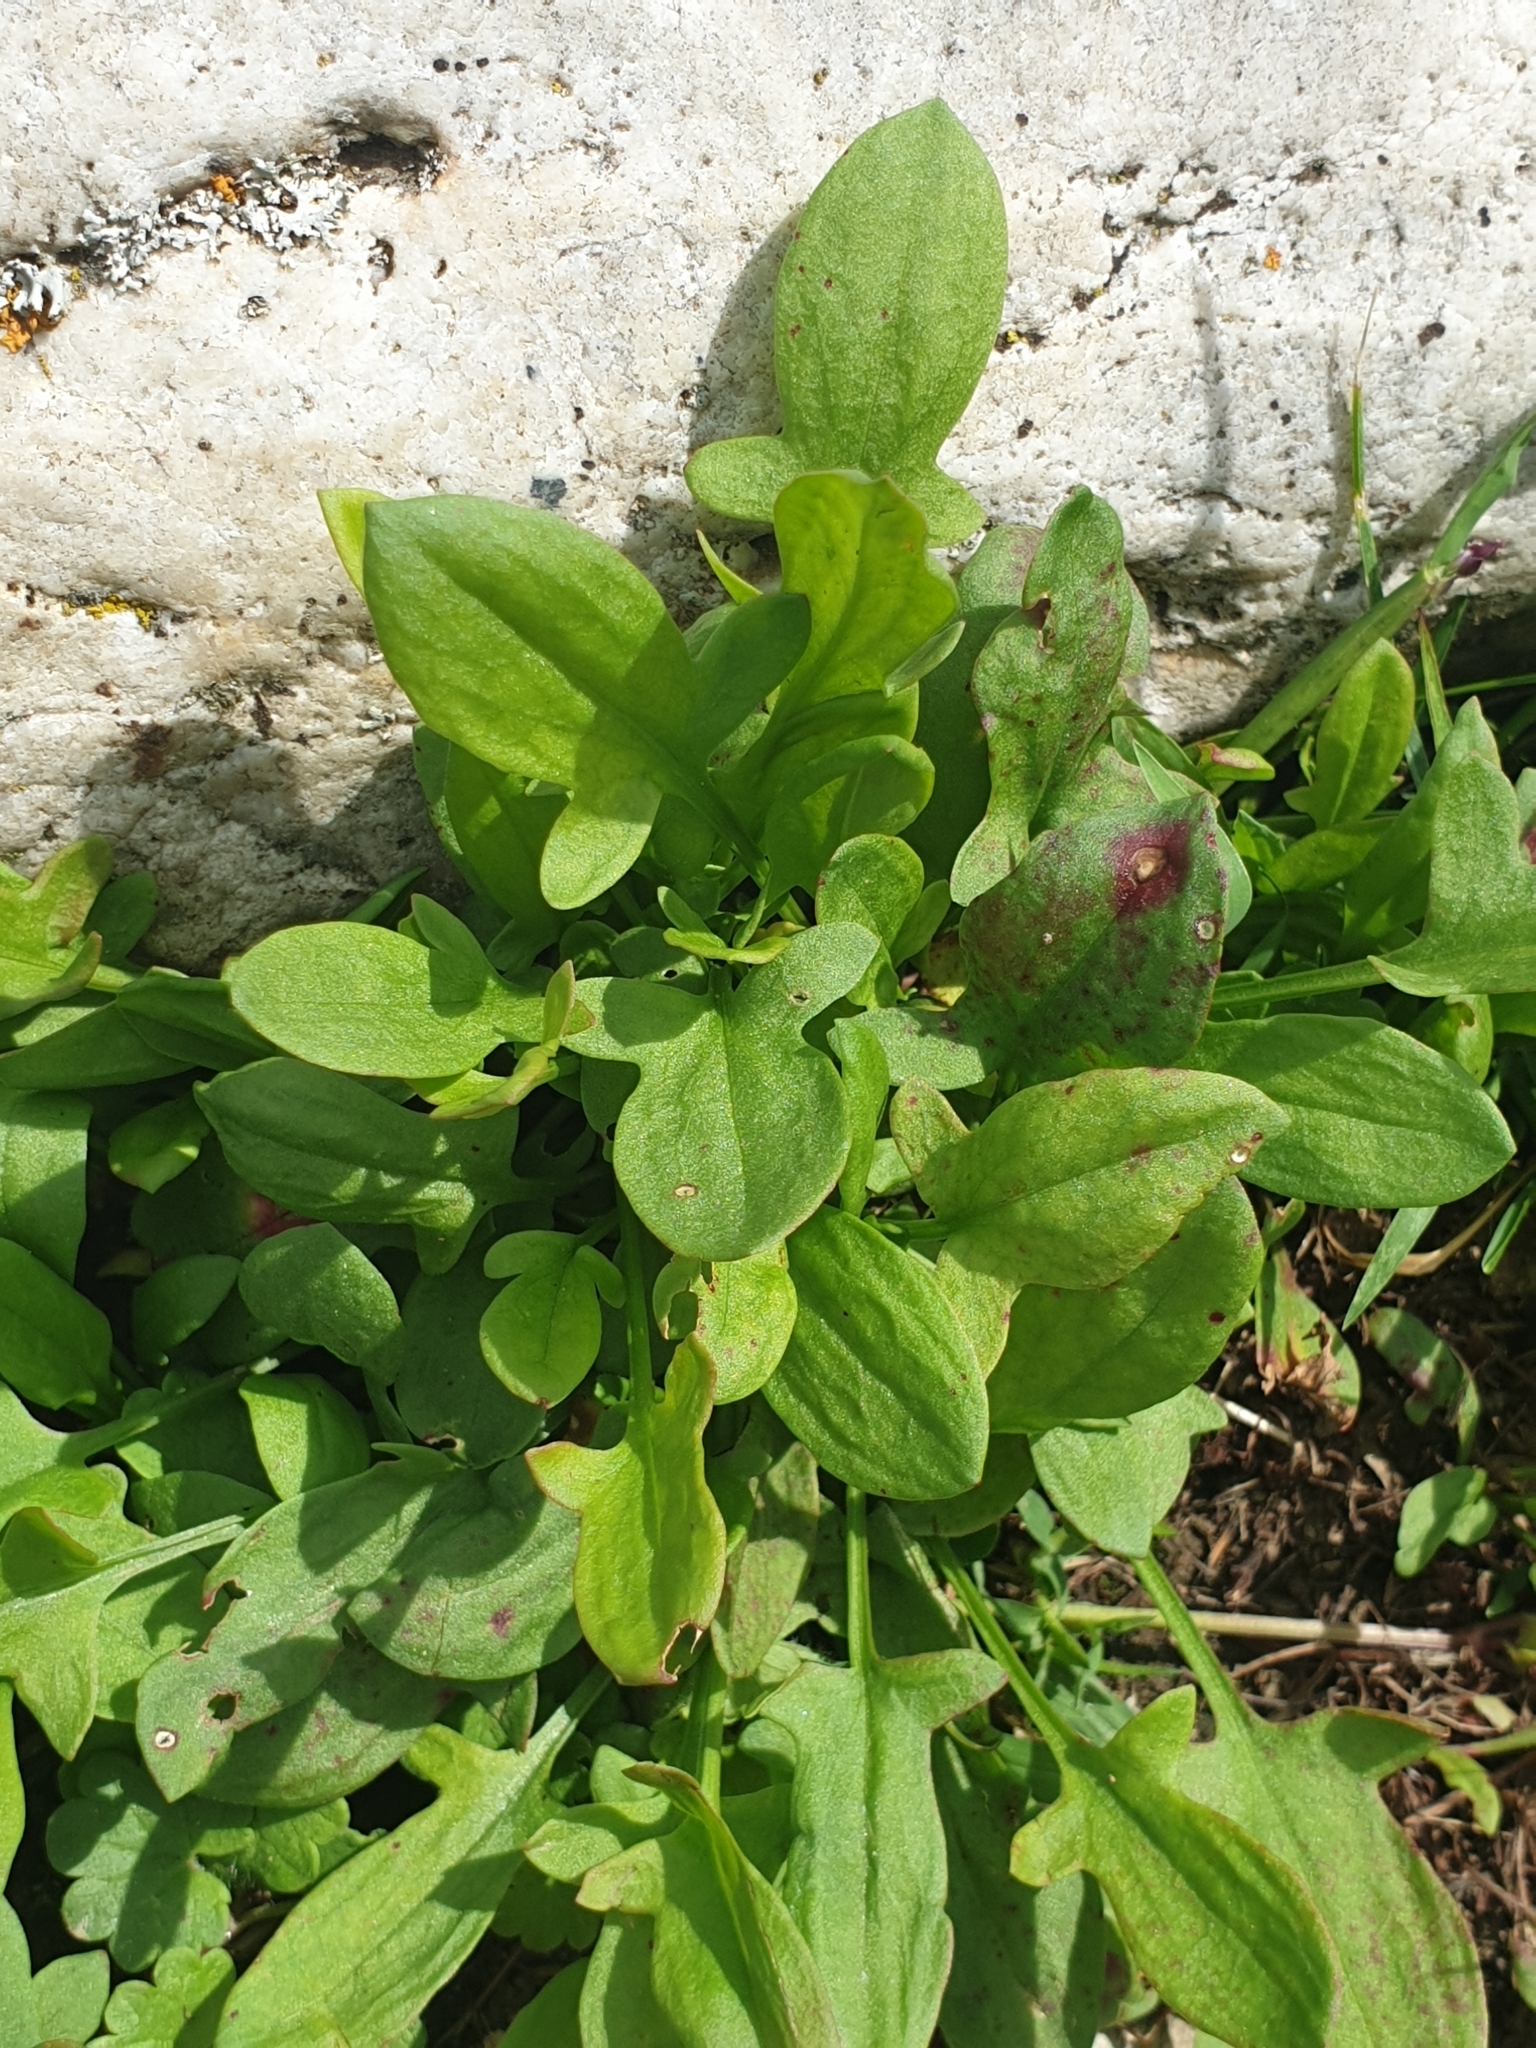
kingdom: Plantae
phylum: Tracheophyta
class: Magnoliopsida
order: Caryophyllales
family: Polygonaceae
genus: Rumex
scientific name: Rumex acetosella
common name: Common sheep sorrel
